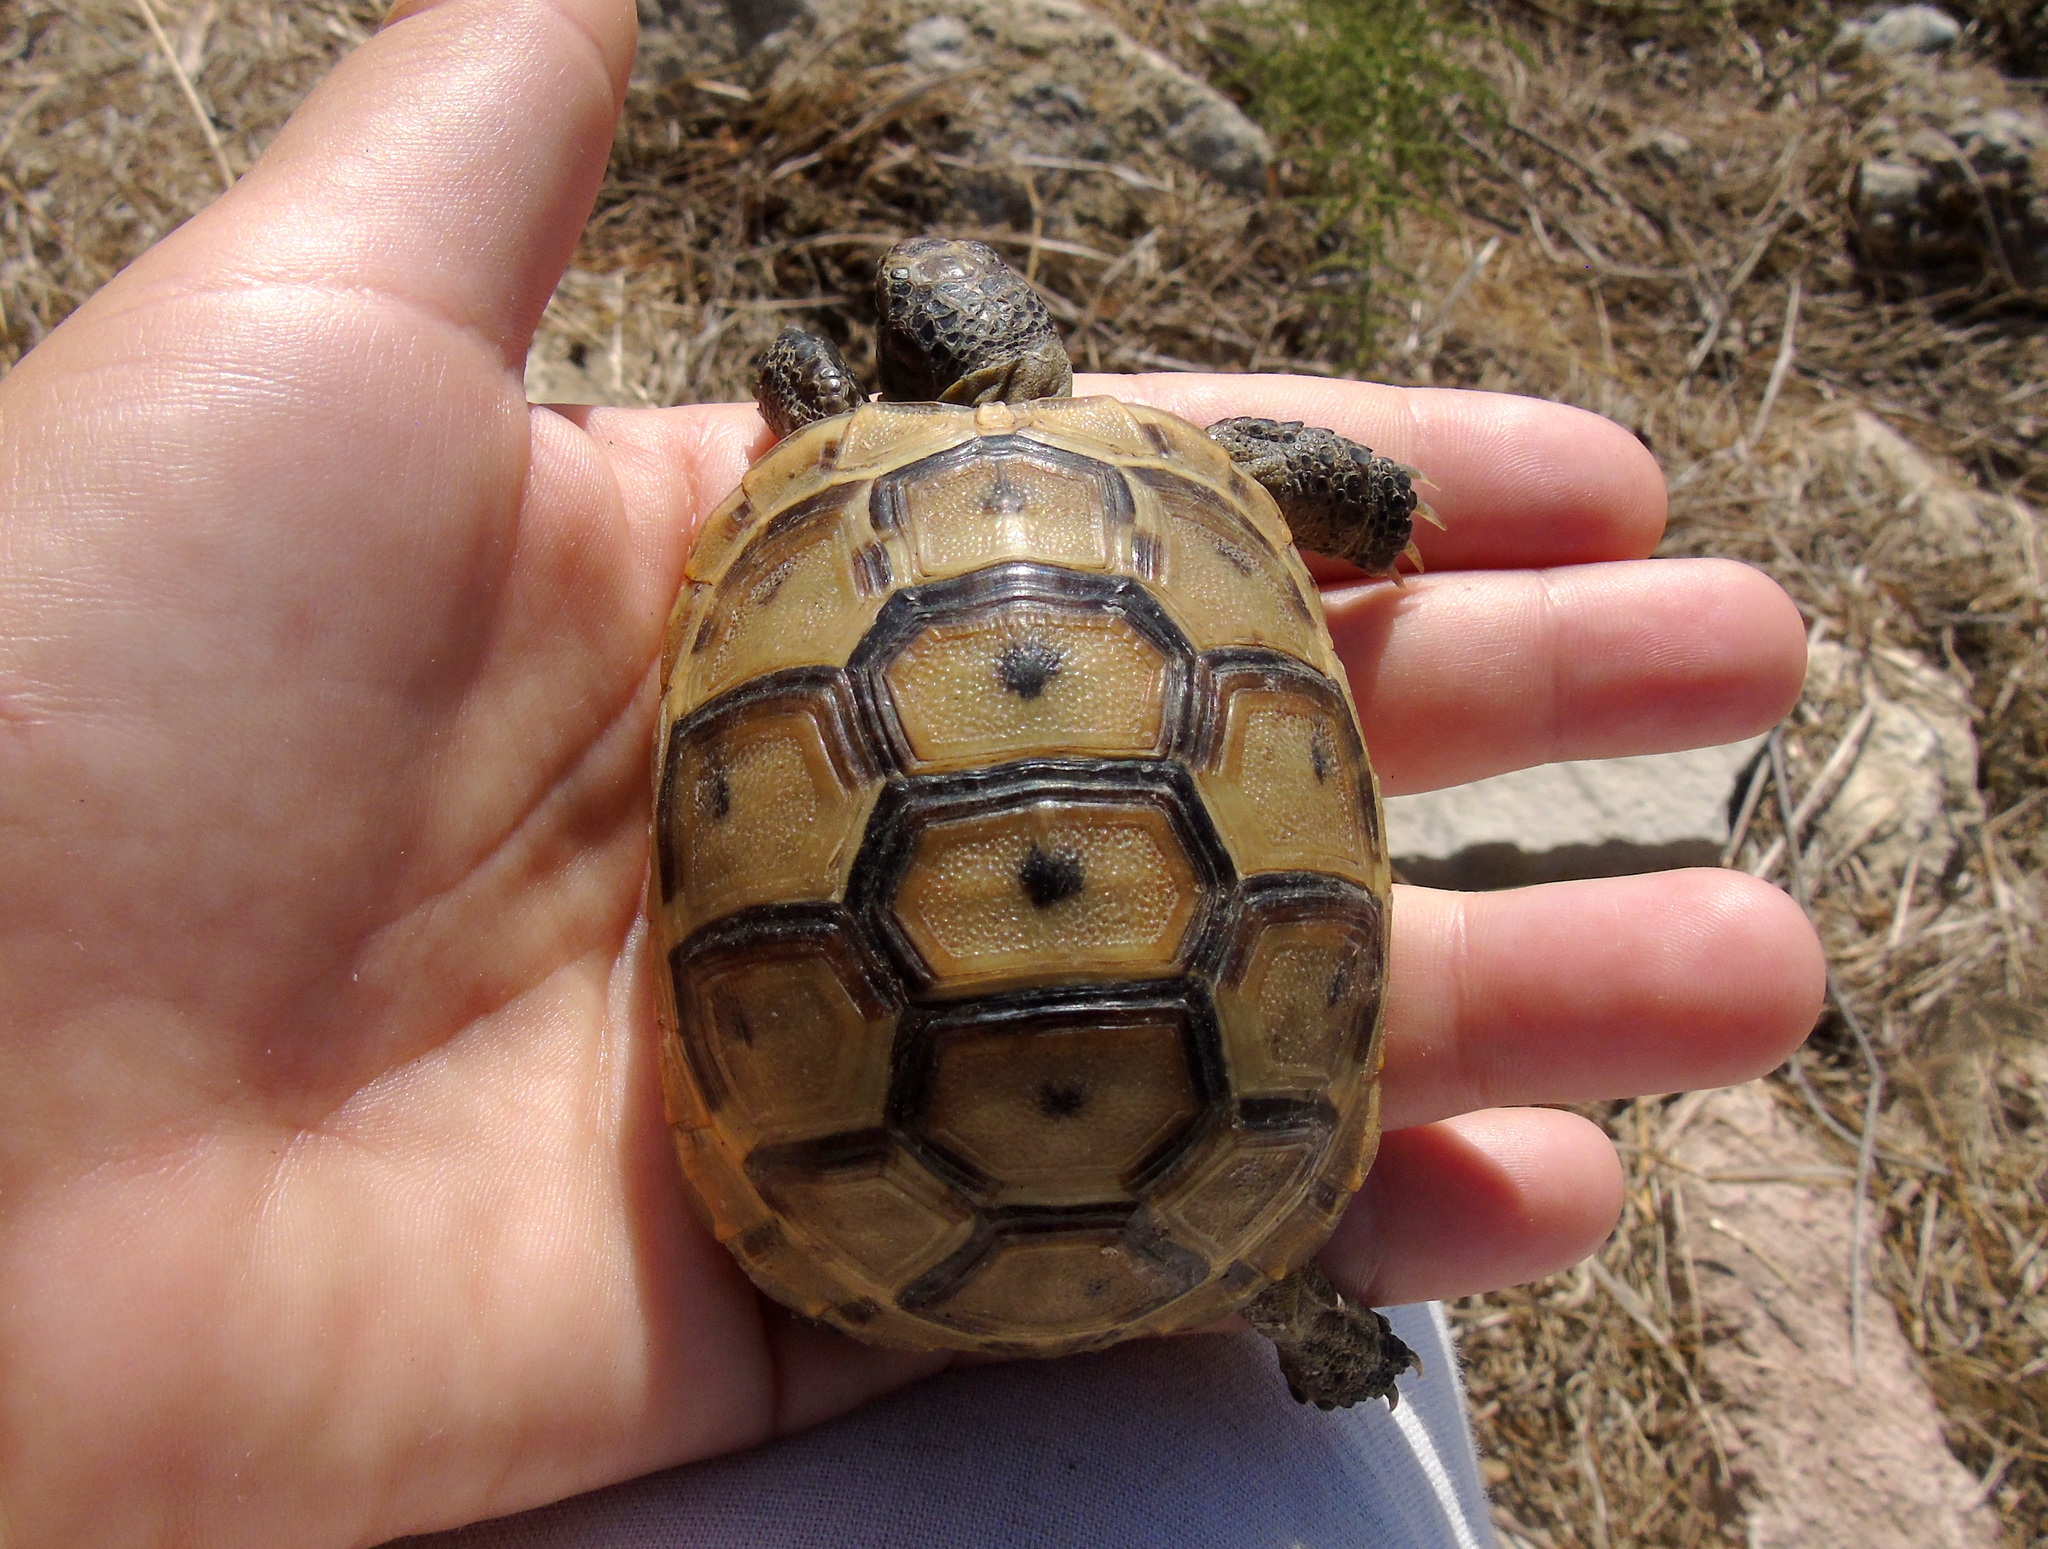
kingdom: Animalia
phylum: Chordata
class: Testudines
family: Testudinidae
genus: Testudo
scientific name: Testudo graeca
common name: Common tortoise
